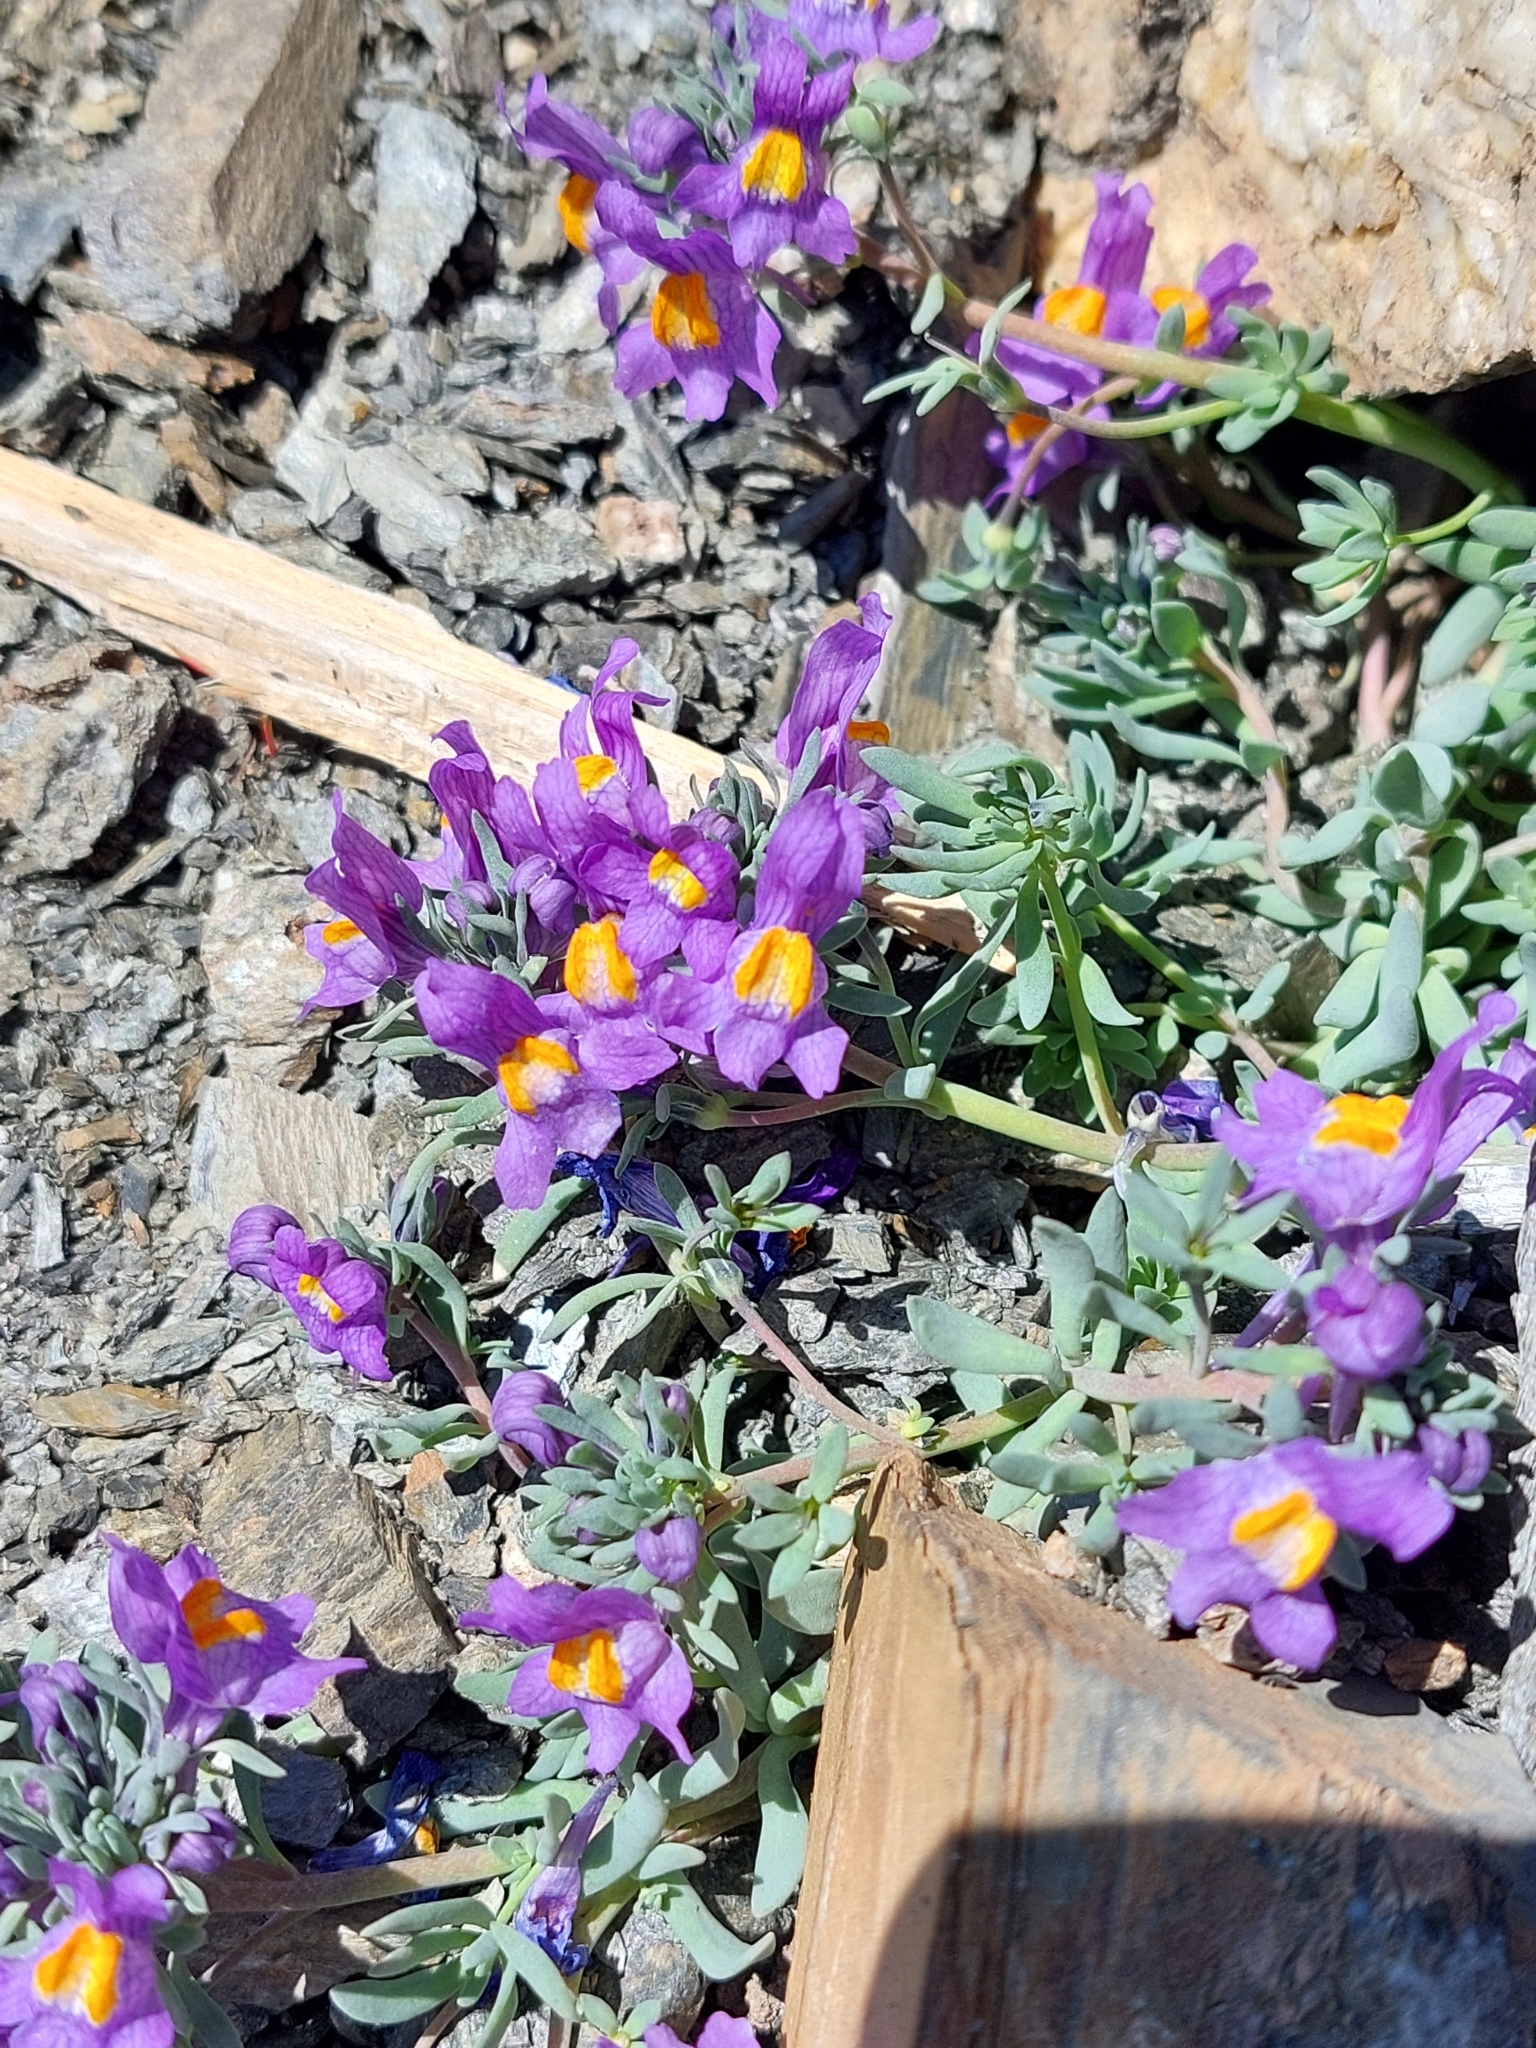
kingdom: Plantae
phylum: Tracheophyta
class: Magnoliopsida
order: Lamiales
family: Plantaginaceae
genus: Linaria
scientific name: Linaria alpina
